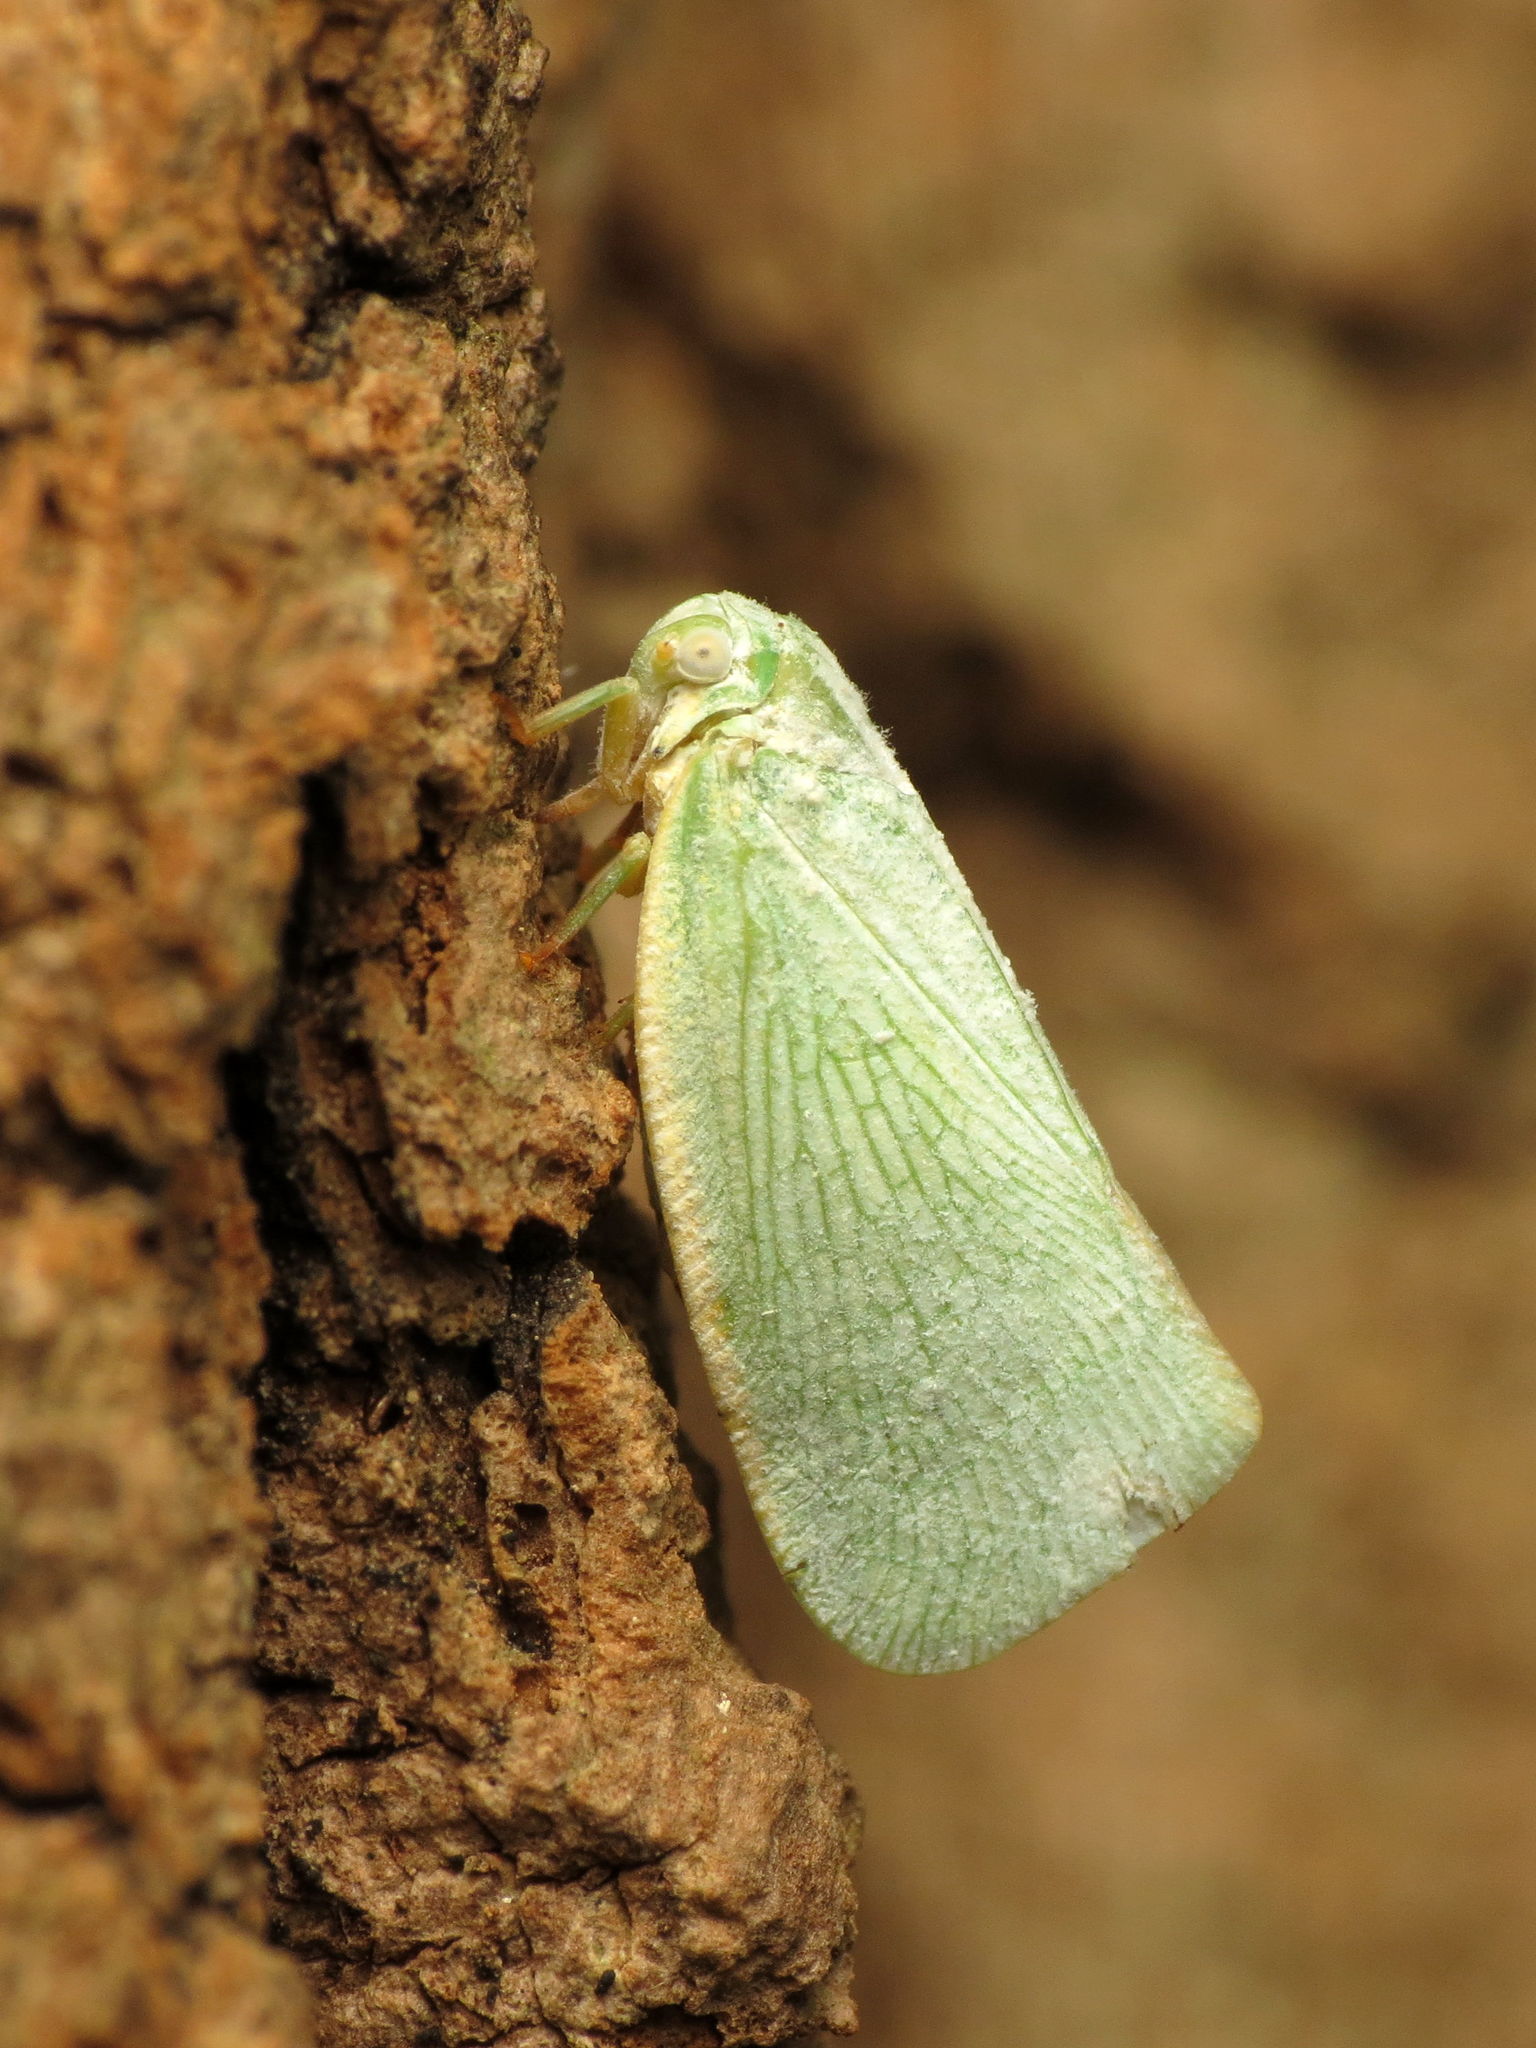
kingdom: Animalia
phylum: Arthropoda
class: Insecta
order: Hemiptera
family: Flatidae
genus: Flatormenis
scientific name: Flatormenis proxima
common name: Northern flatid planthopper
